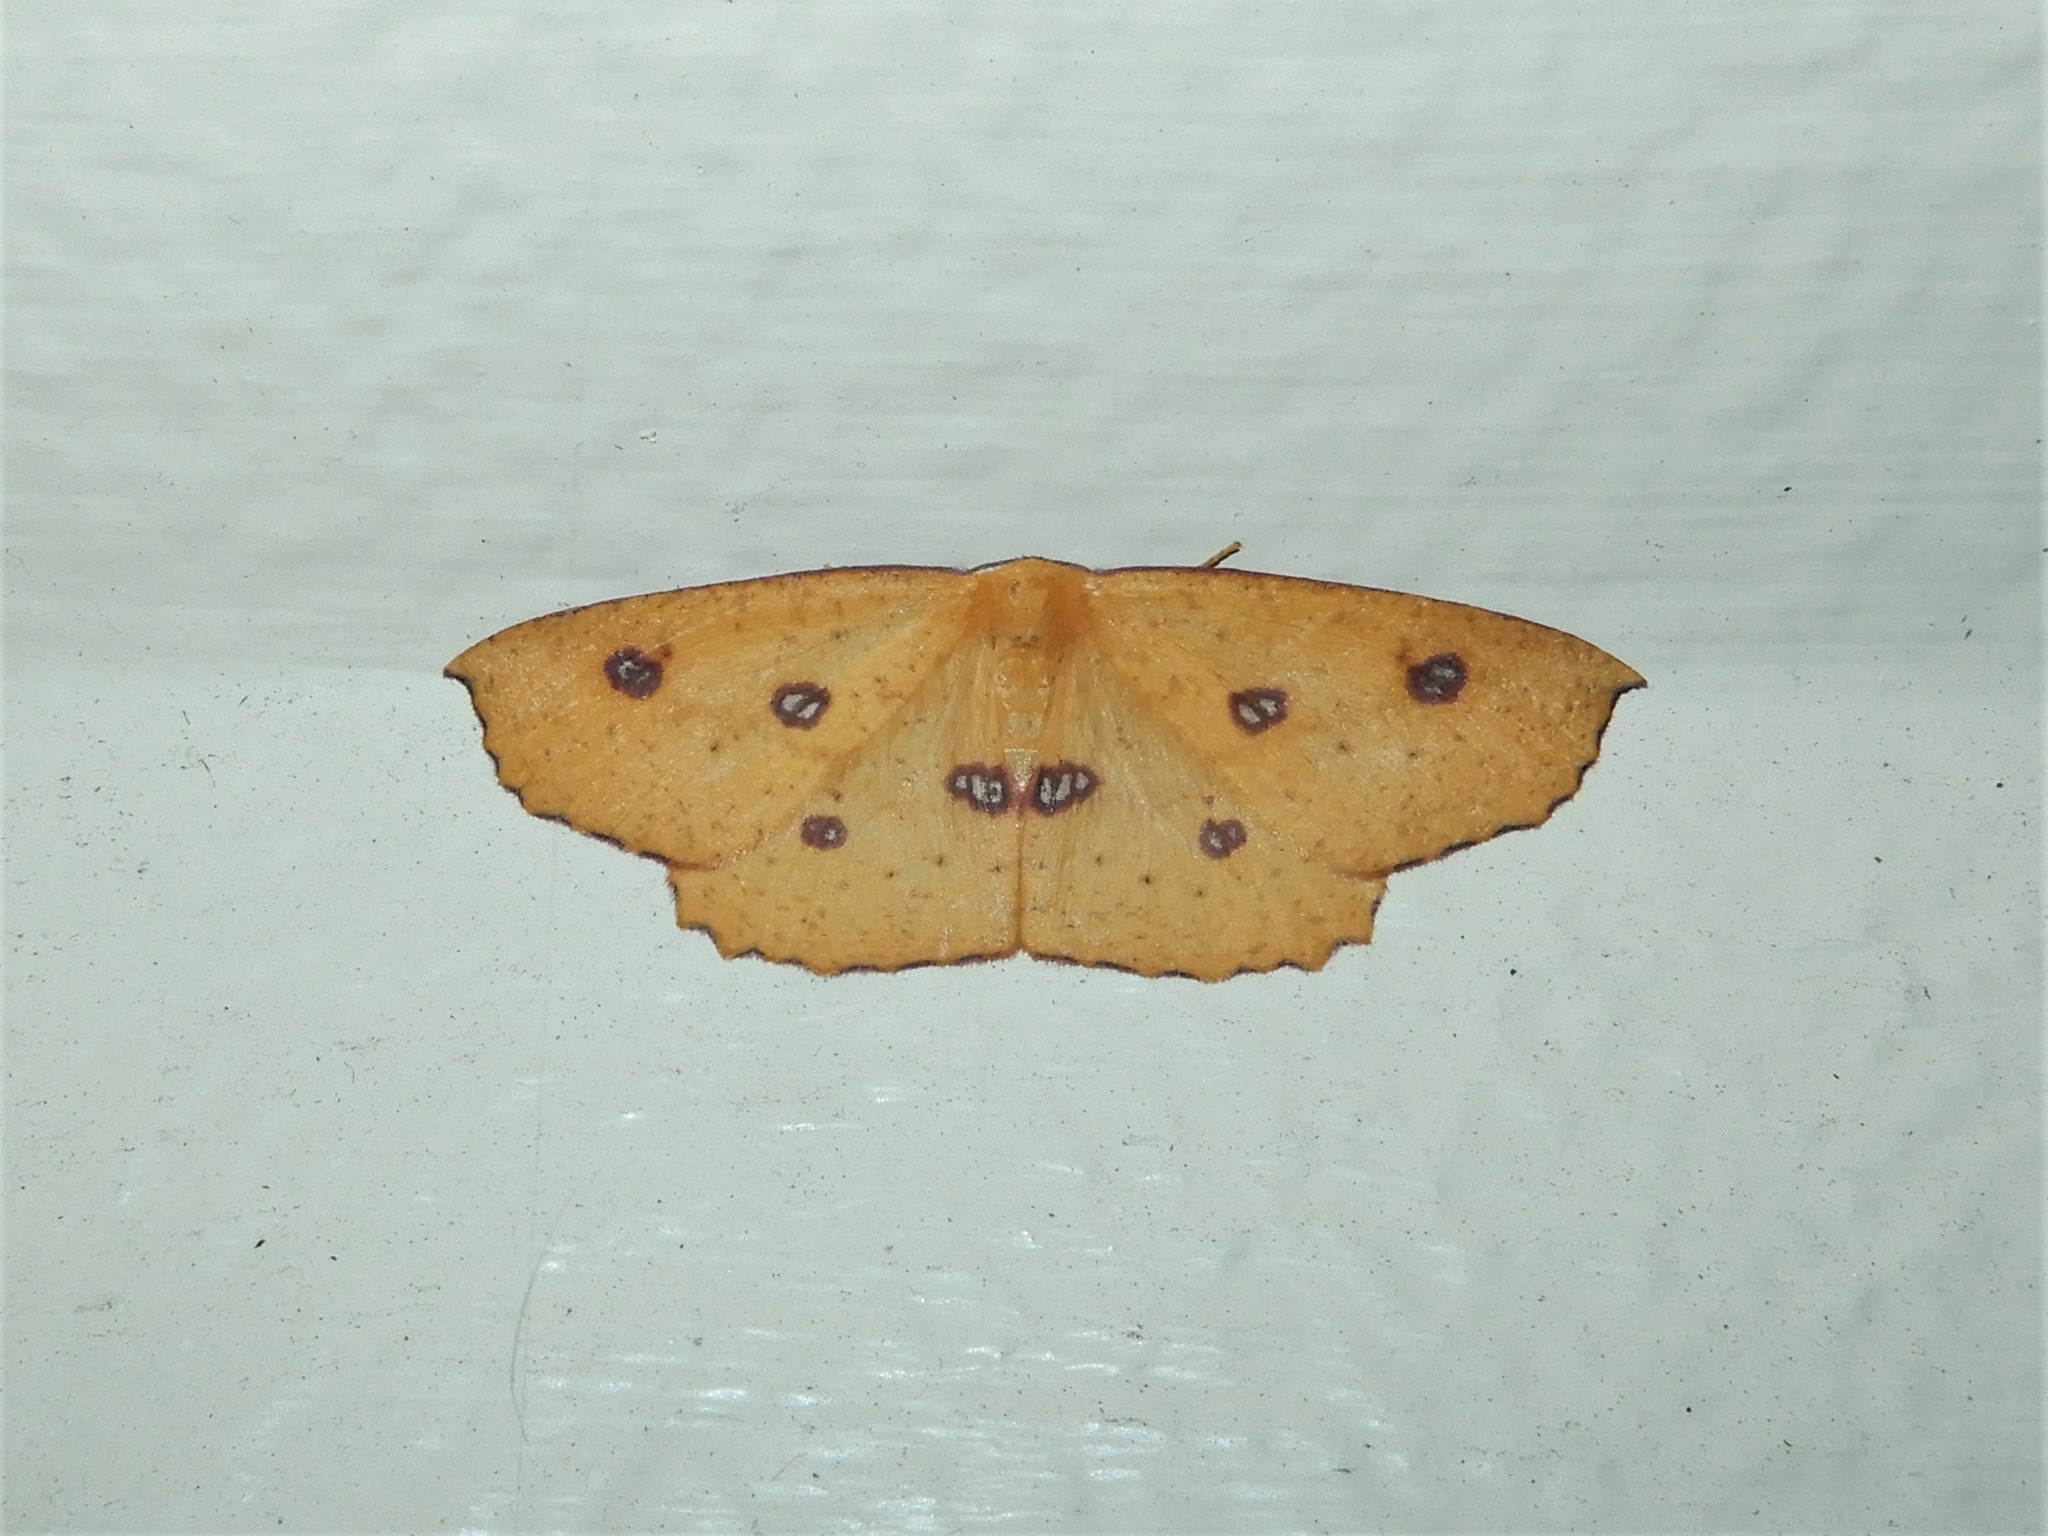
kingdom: Animalia
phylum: Arthropoda
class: Insecta
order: Lepidoptera
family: Geometridae
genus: Xyridacma
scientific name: Xyridacma alectoraria
